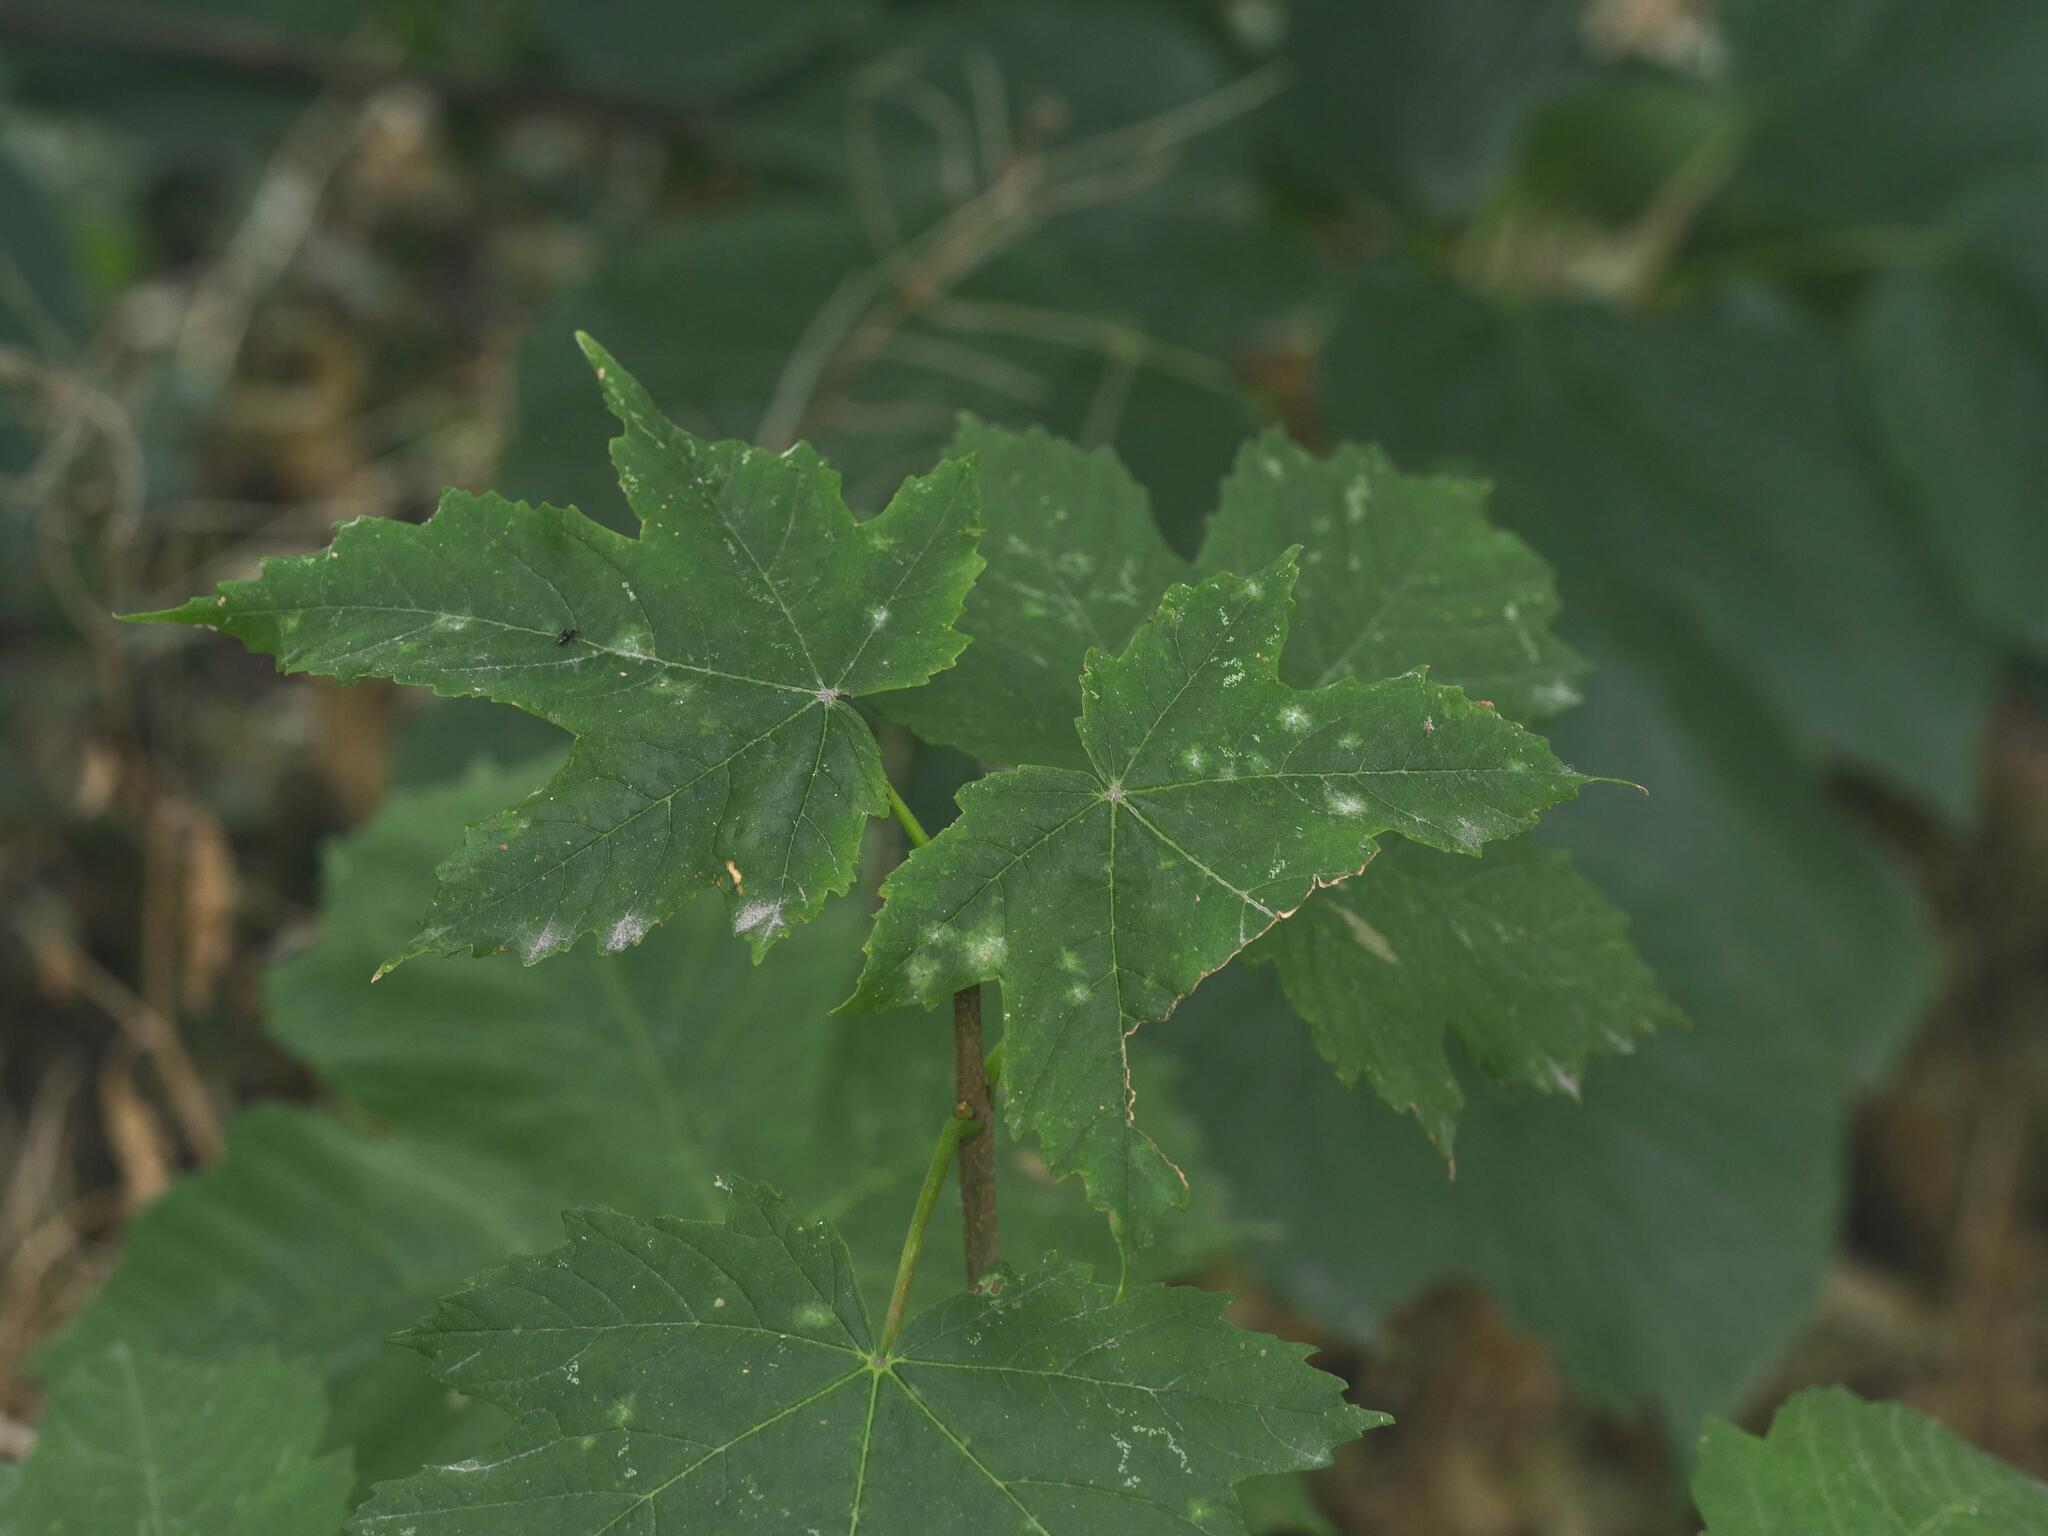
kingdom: Plantae
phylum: Tracheophyta
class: Magnoliopsida
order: Sapindales
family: Sapindaceae
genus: Acer
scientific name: Acer pseudoplatanus
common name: Sycamore
